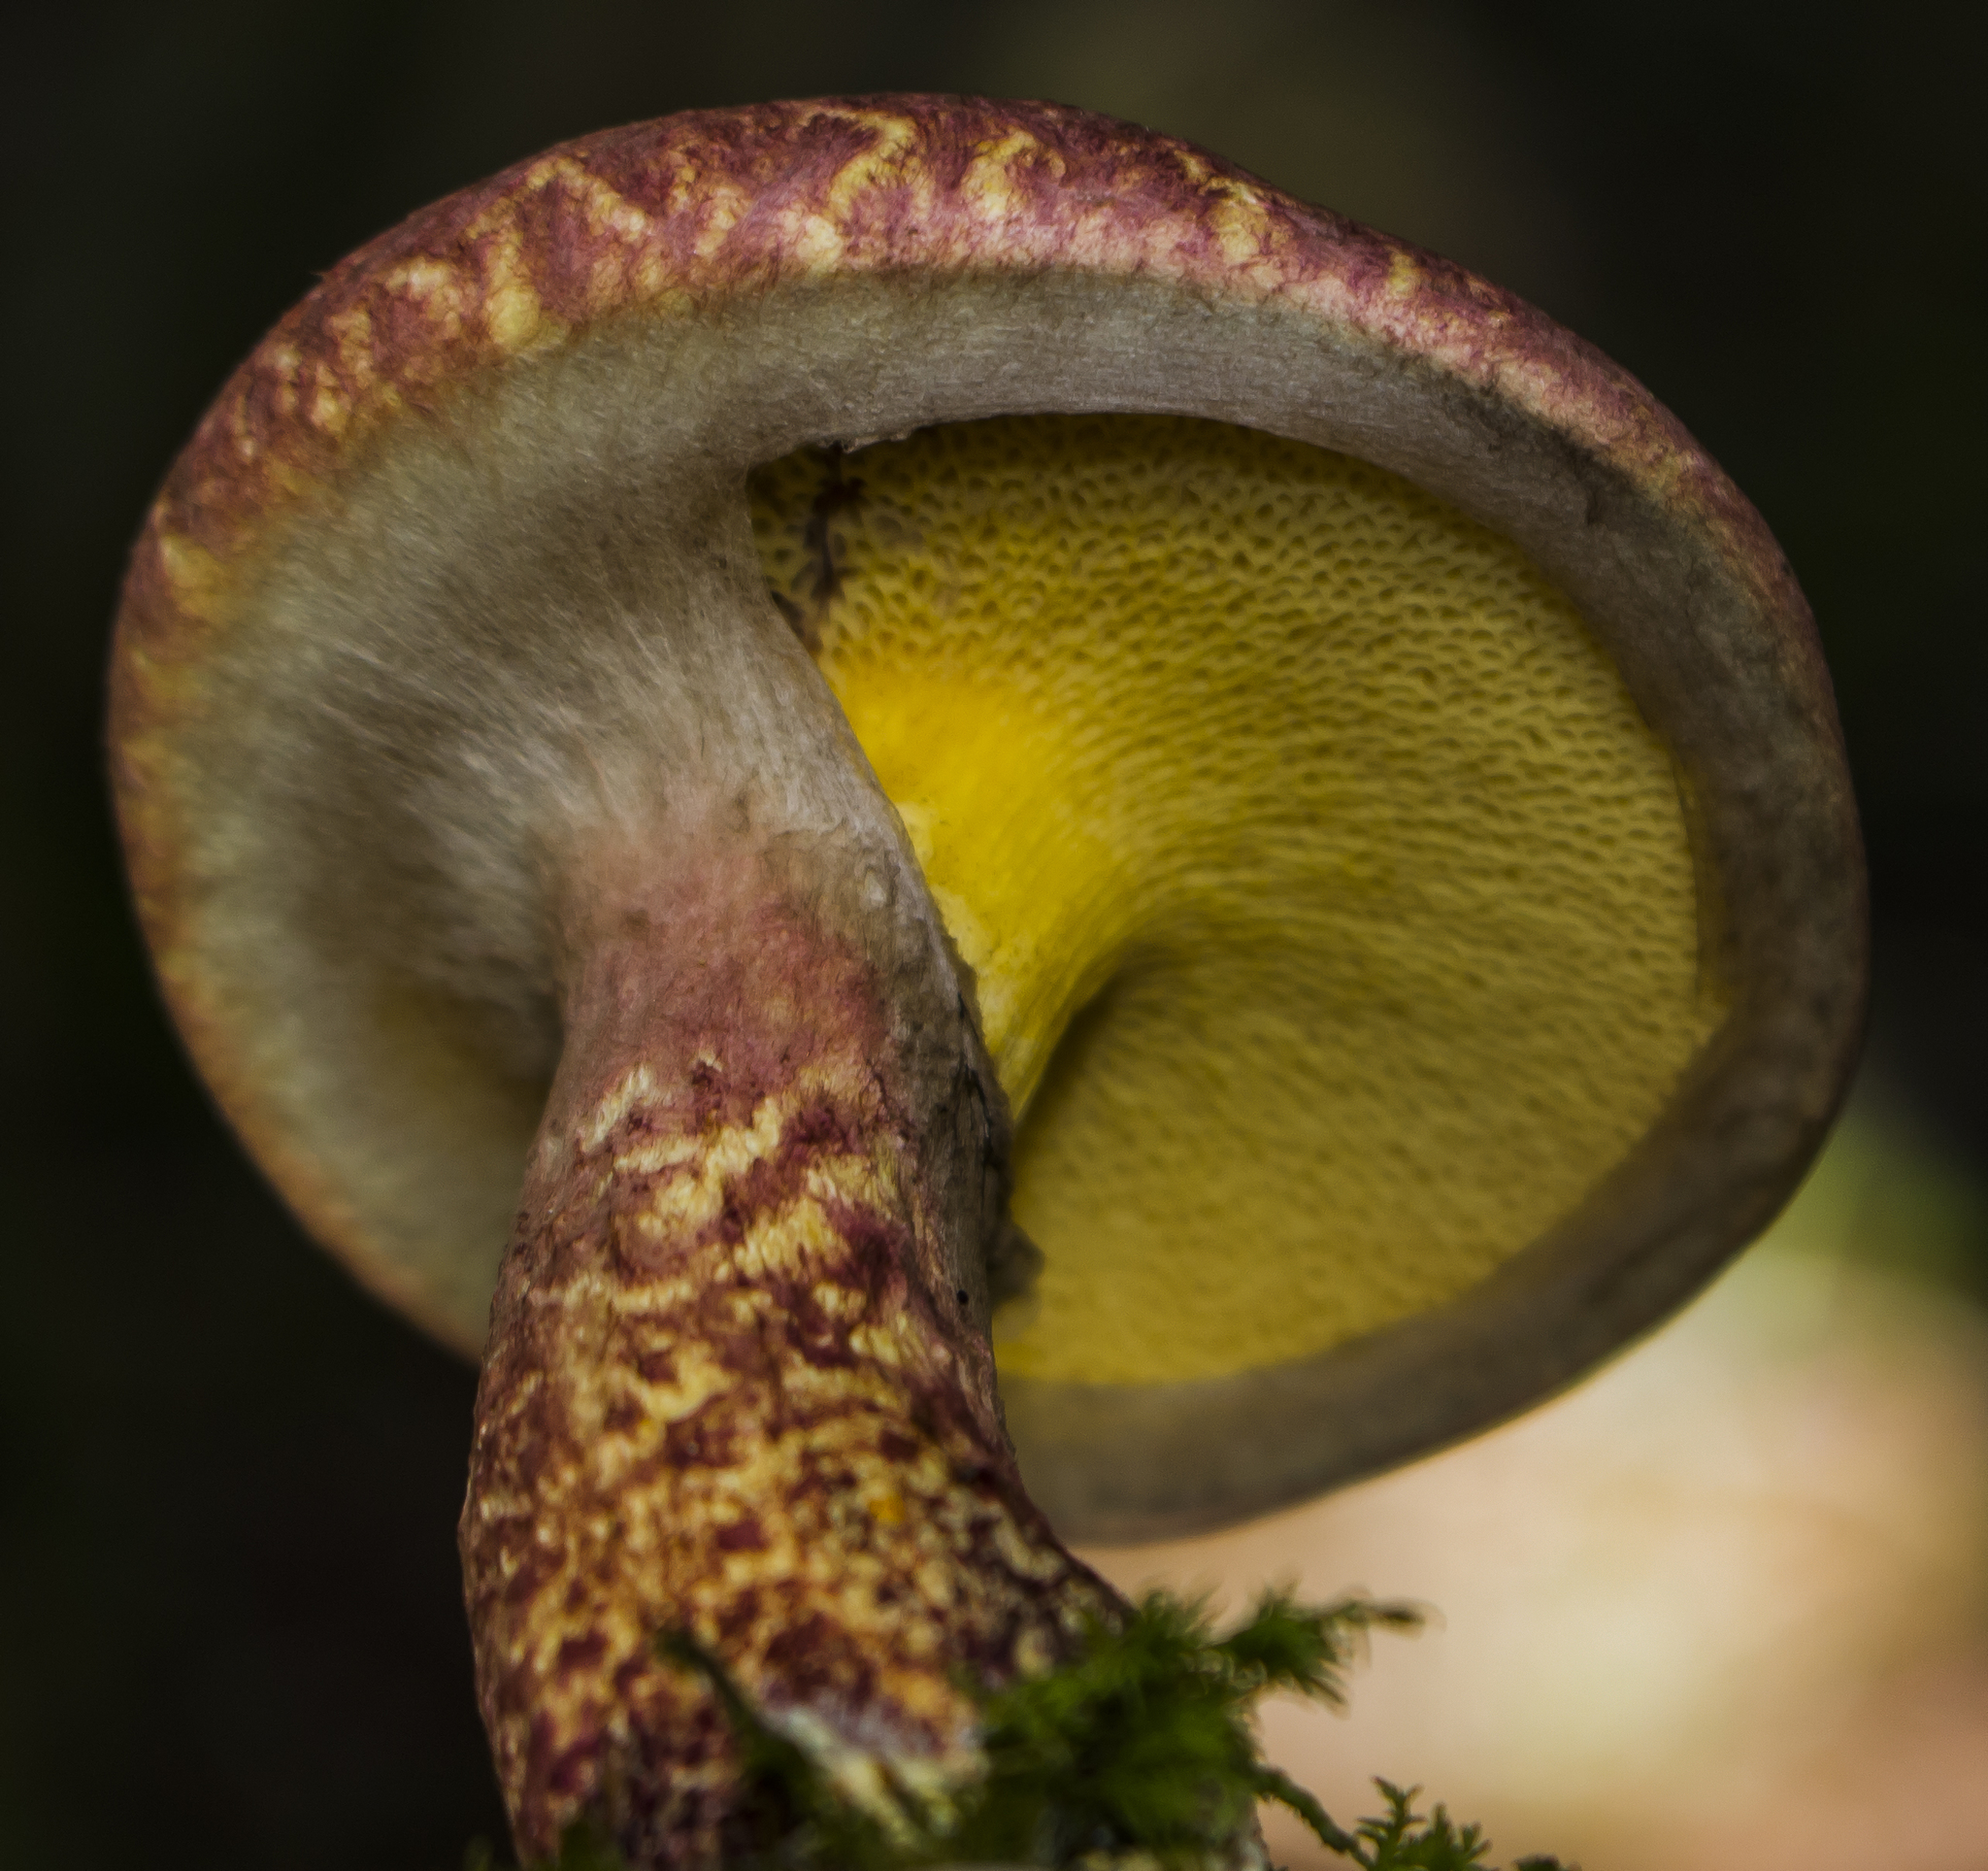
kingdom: Fungi
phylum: Basidiomycota
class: Agaricomycetes
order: Boletales
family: Suillaceae
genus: Suillus
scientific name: Suillus spraguei
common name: Painted suillus
